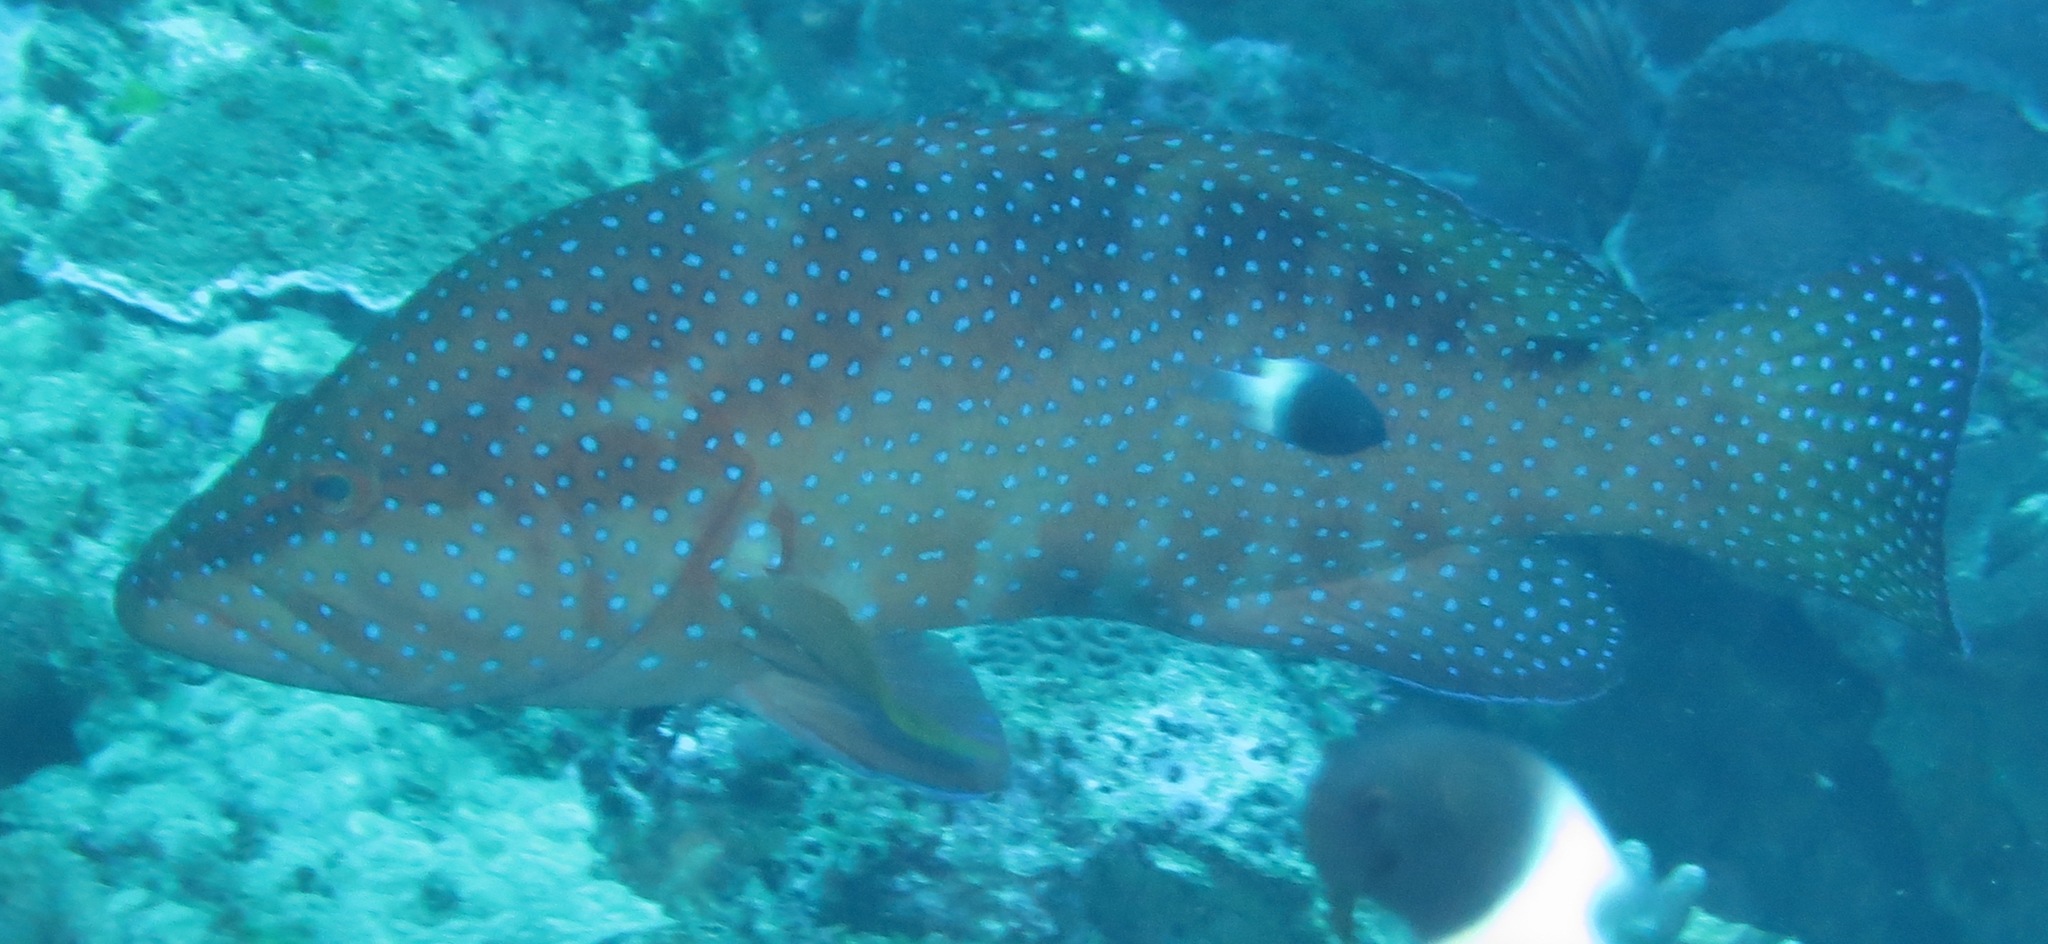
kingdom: Animalia
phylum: Chordata
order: Perciformes
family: Serranidae
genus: Cephalopholis
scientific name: Cephalopholis miniata
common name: Coral hind
